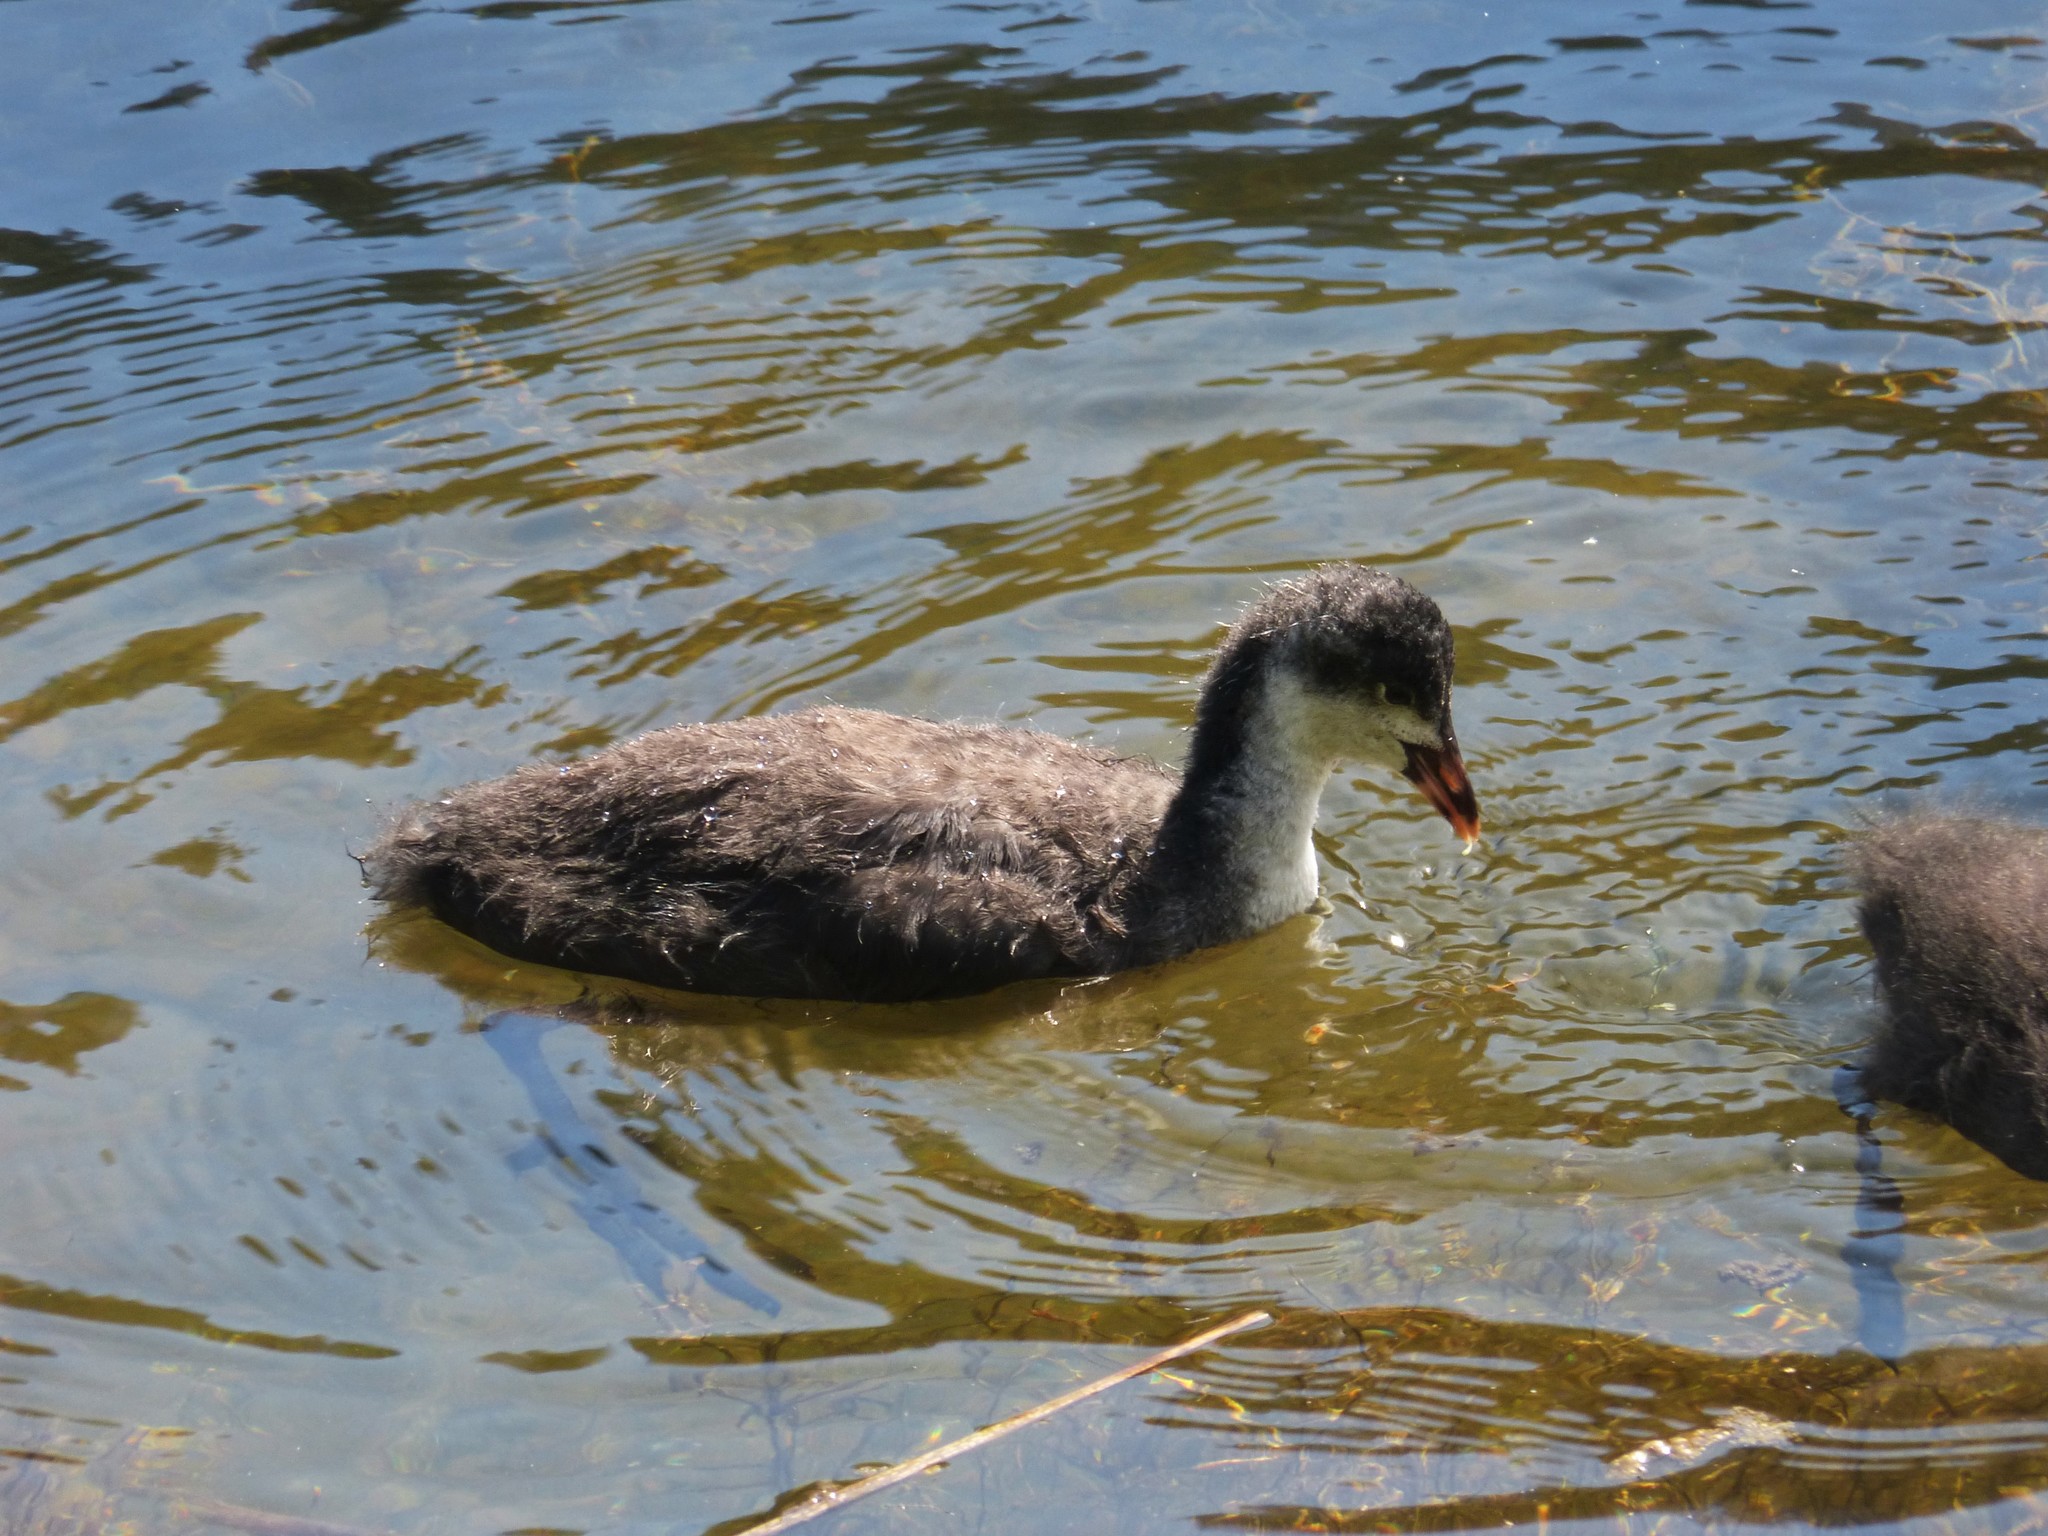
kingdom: Animalia
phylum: Chordata
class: Aves
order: Gruiformes
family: Rallidae
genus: Fulica
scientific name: Fulica atra
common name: Eurasian coot
